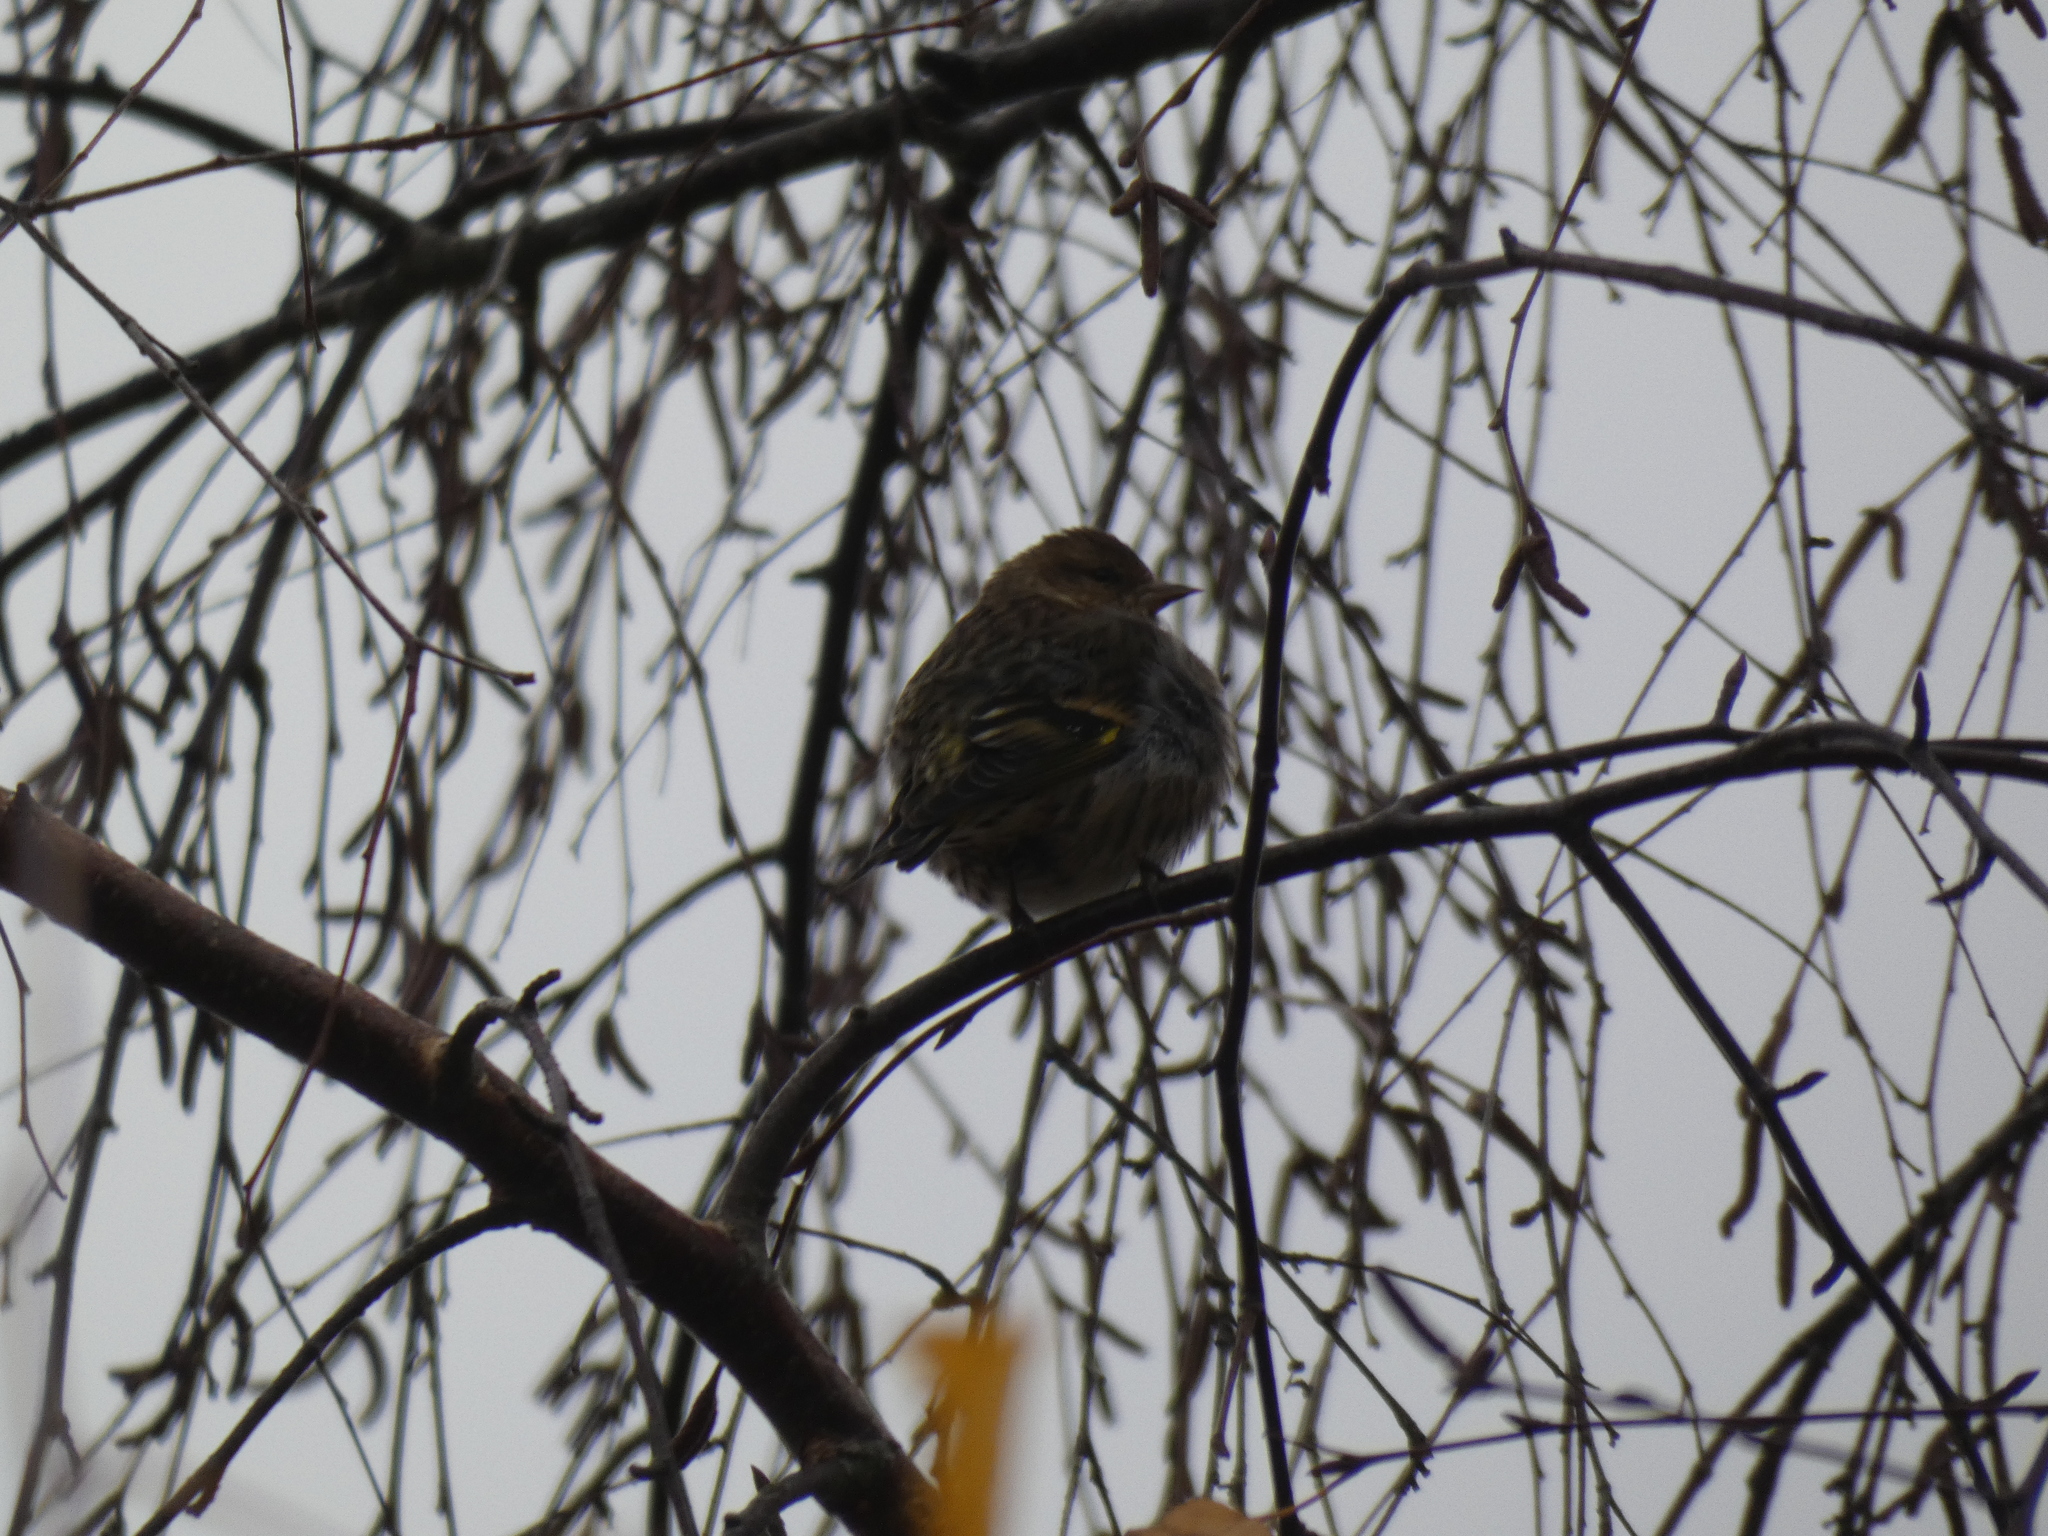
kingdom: Animalia
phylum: Chordata
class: Aves
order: Passeriformes
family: Fringillidae
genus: Spinus
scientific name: Spinus pinus
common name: Pine siskin
